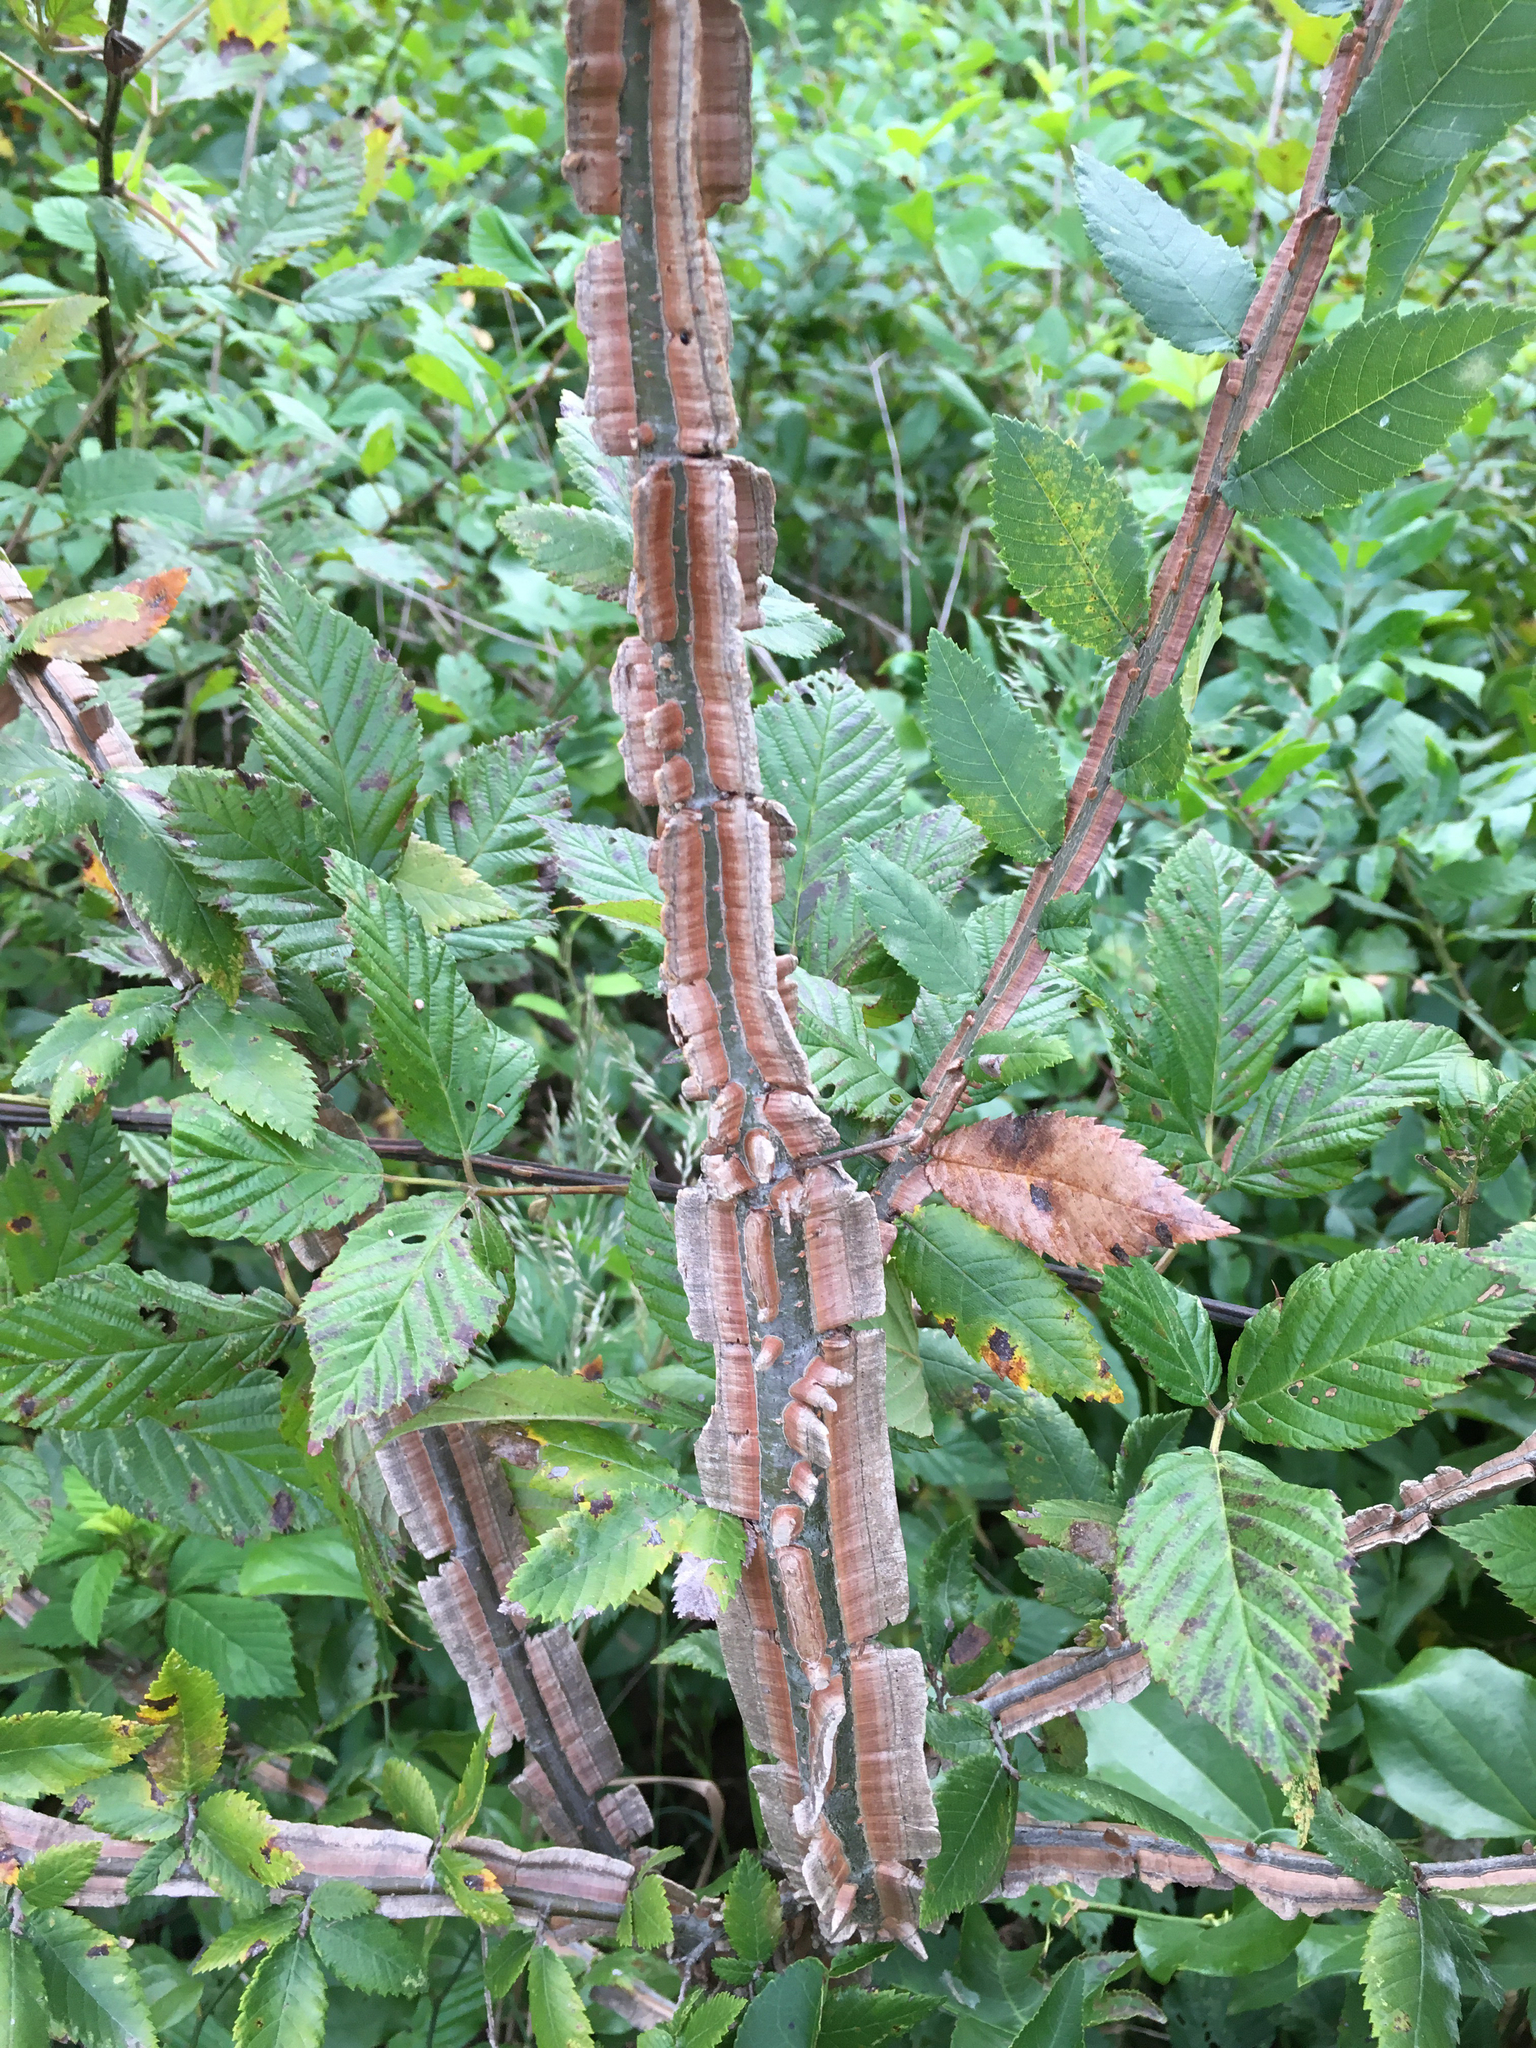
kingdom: Plantae
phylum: Tracheophyta
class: Magnoliopsida
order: Rosales
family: Ulmaceae
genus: Ulmus
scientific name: Ulmus alata
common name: Winged elm
